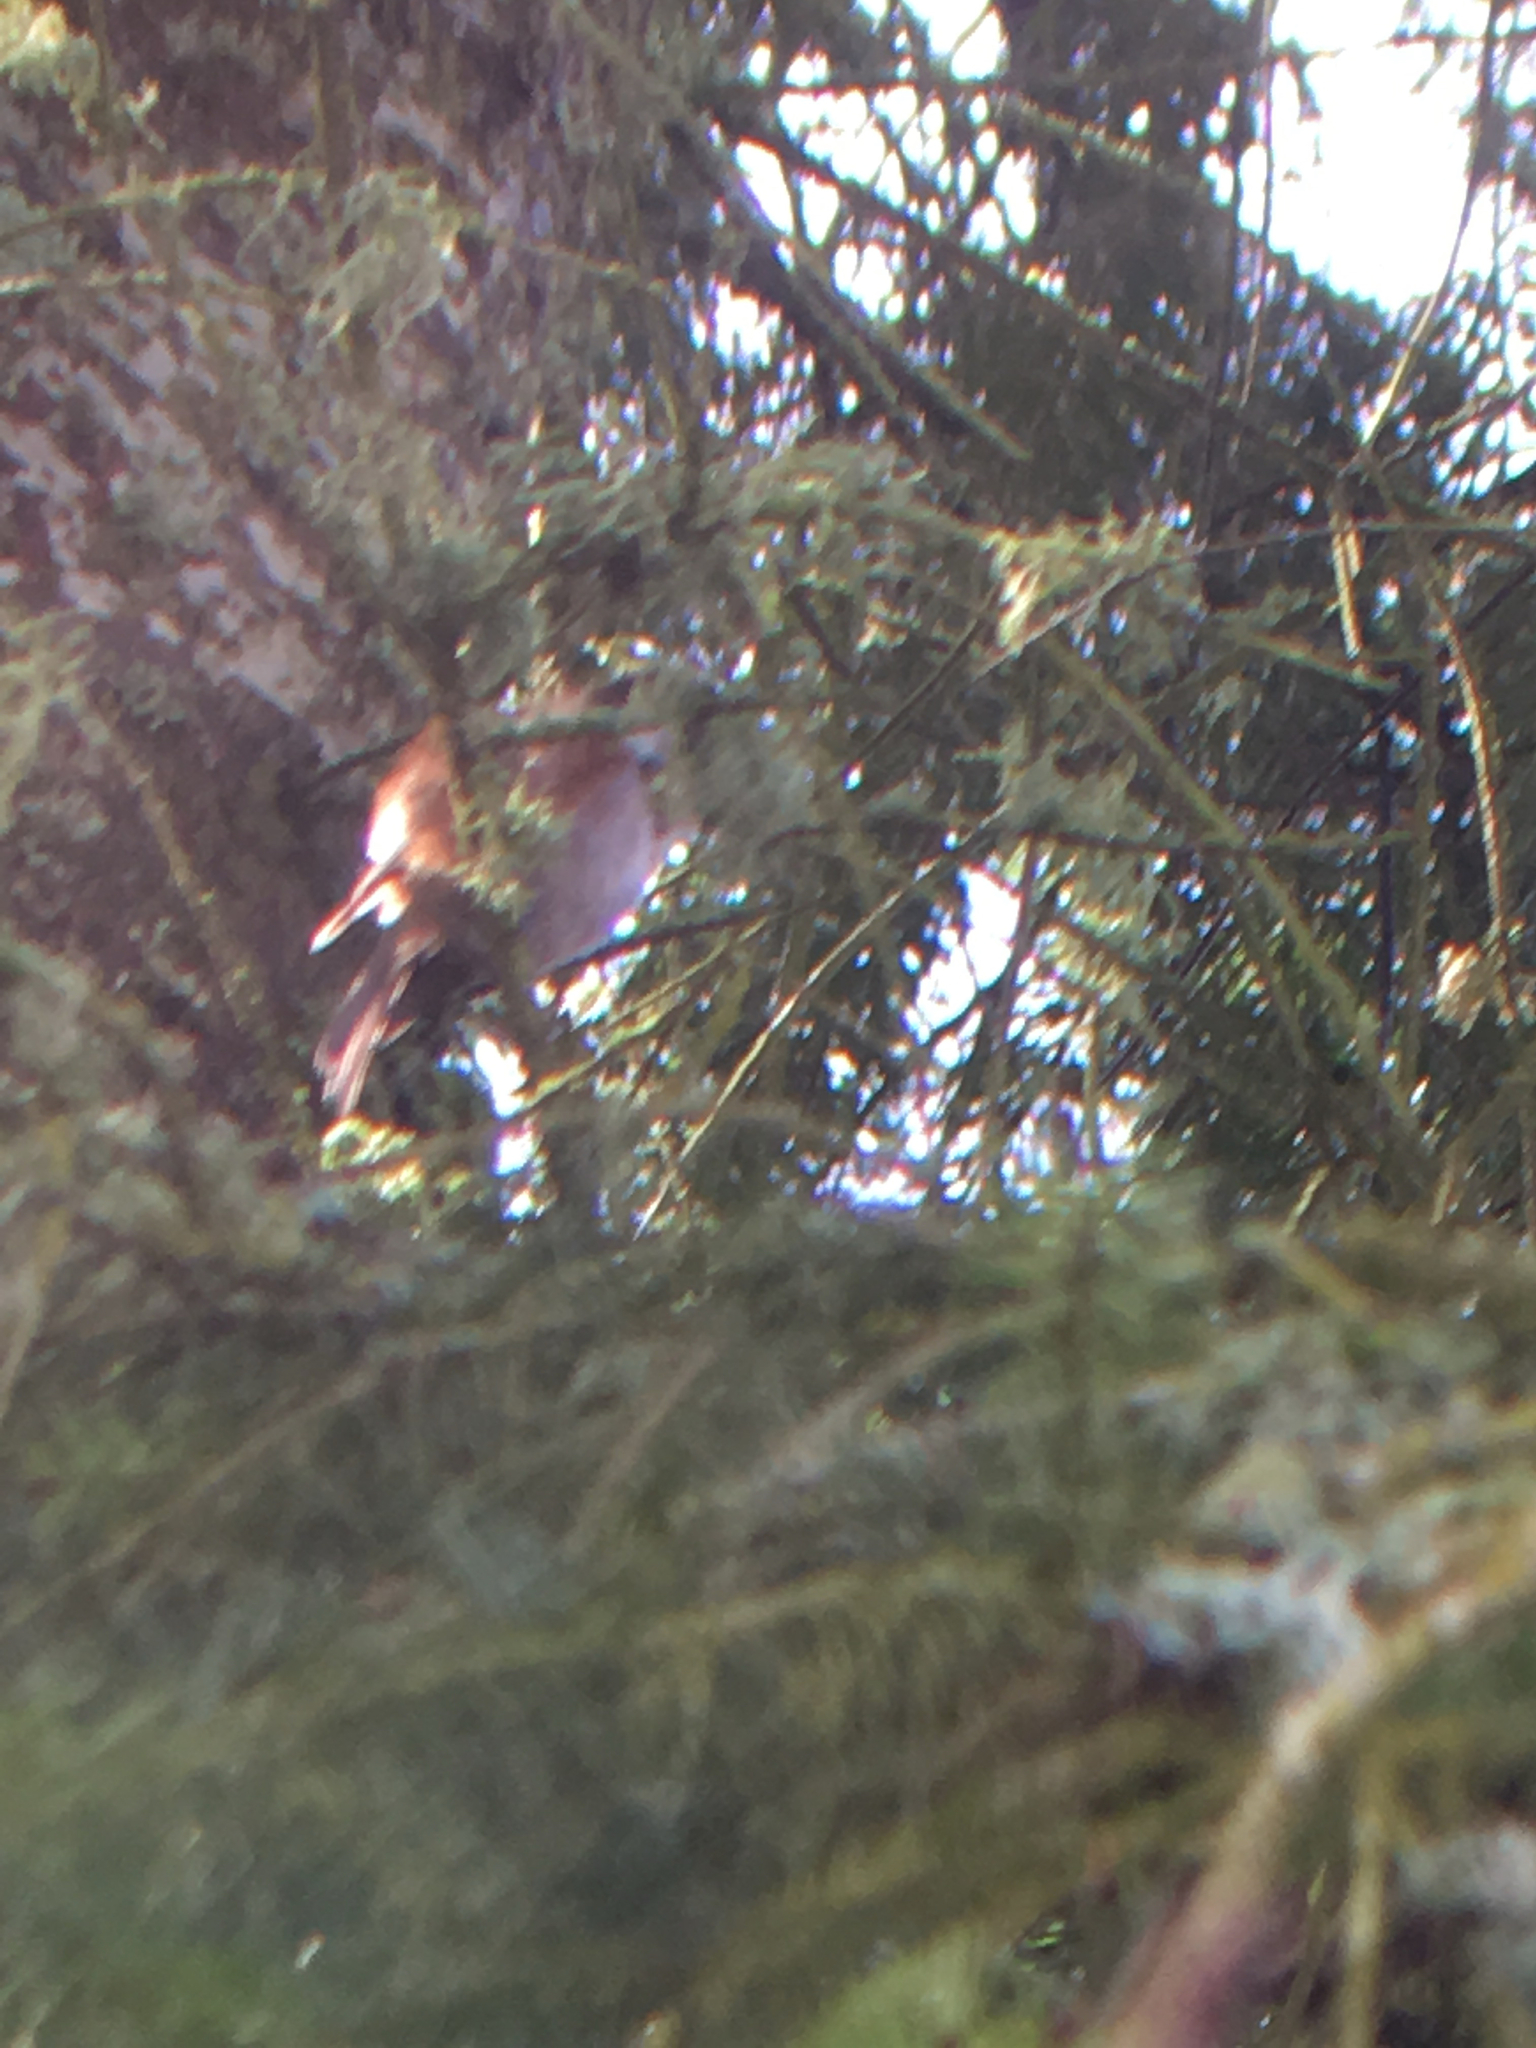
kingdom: Animalia
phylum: Chordata
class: Aves
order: Passeriformes
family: Paridae
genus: Poecile
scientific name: Poecile rufescens
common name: Chestnut-backed chickadee
